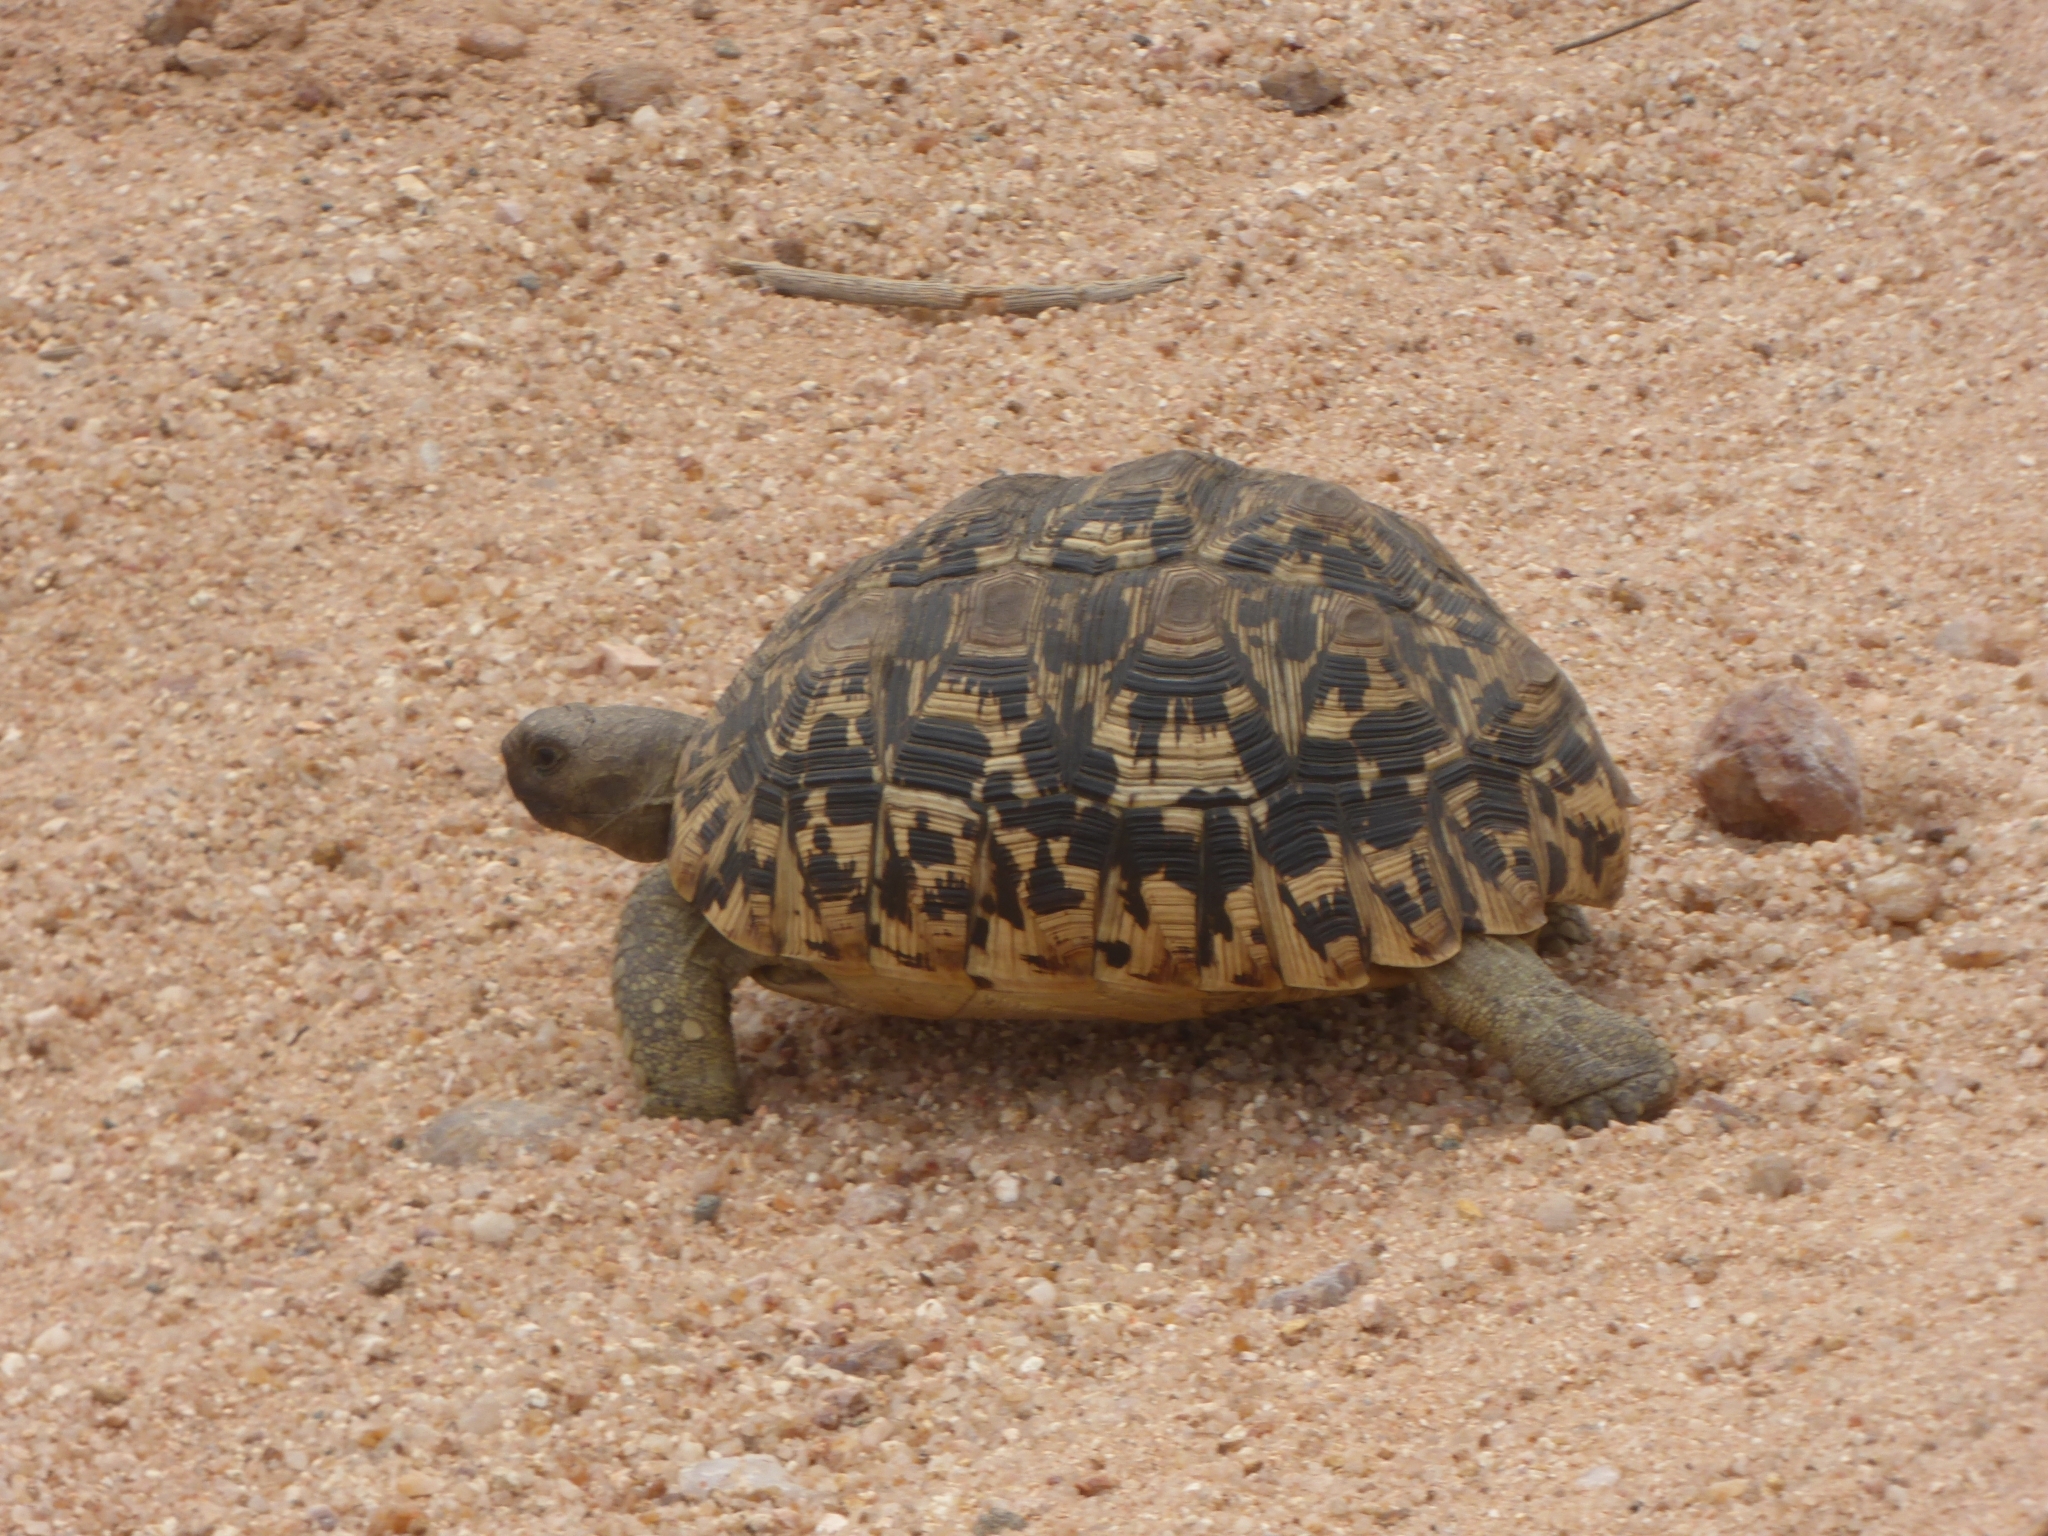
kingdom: Animalia
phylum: Chordata
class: Testudines
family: Testudinidae
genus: Stigmochelys
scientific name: Stigmochelys pardalis
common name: Leopard tortoise
